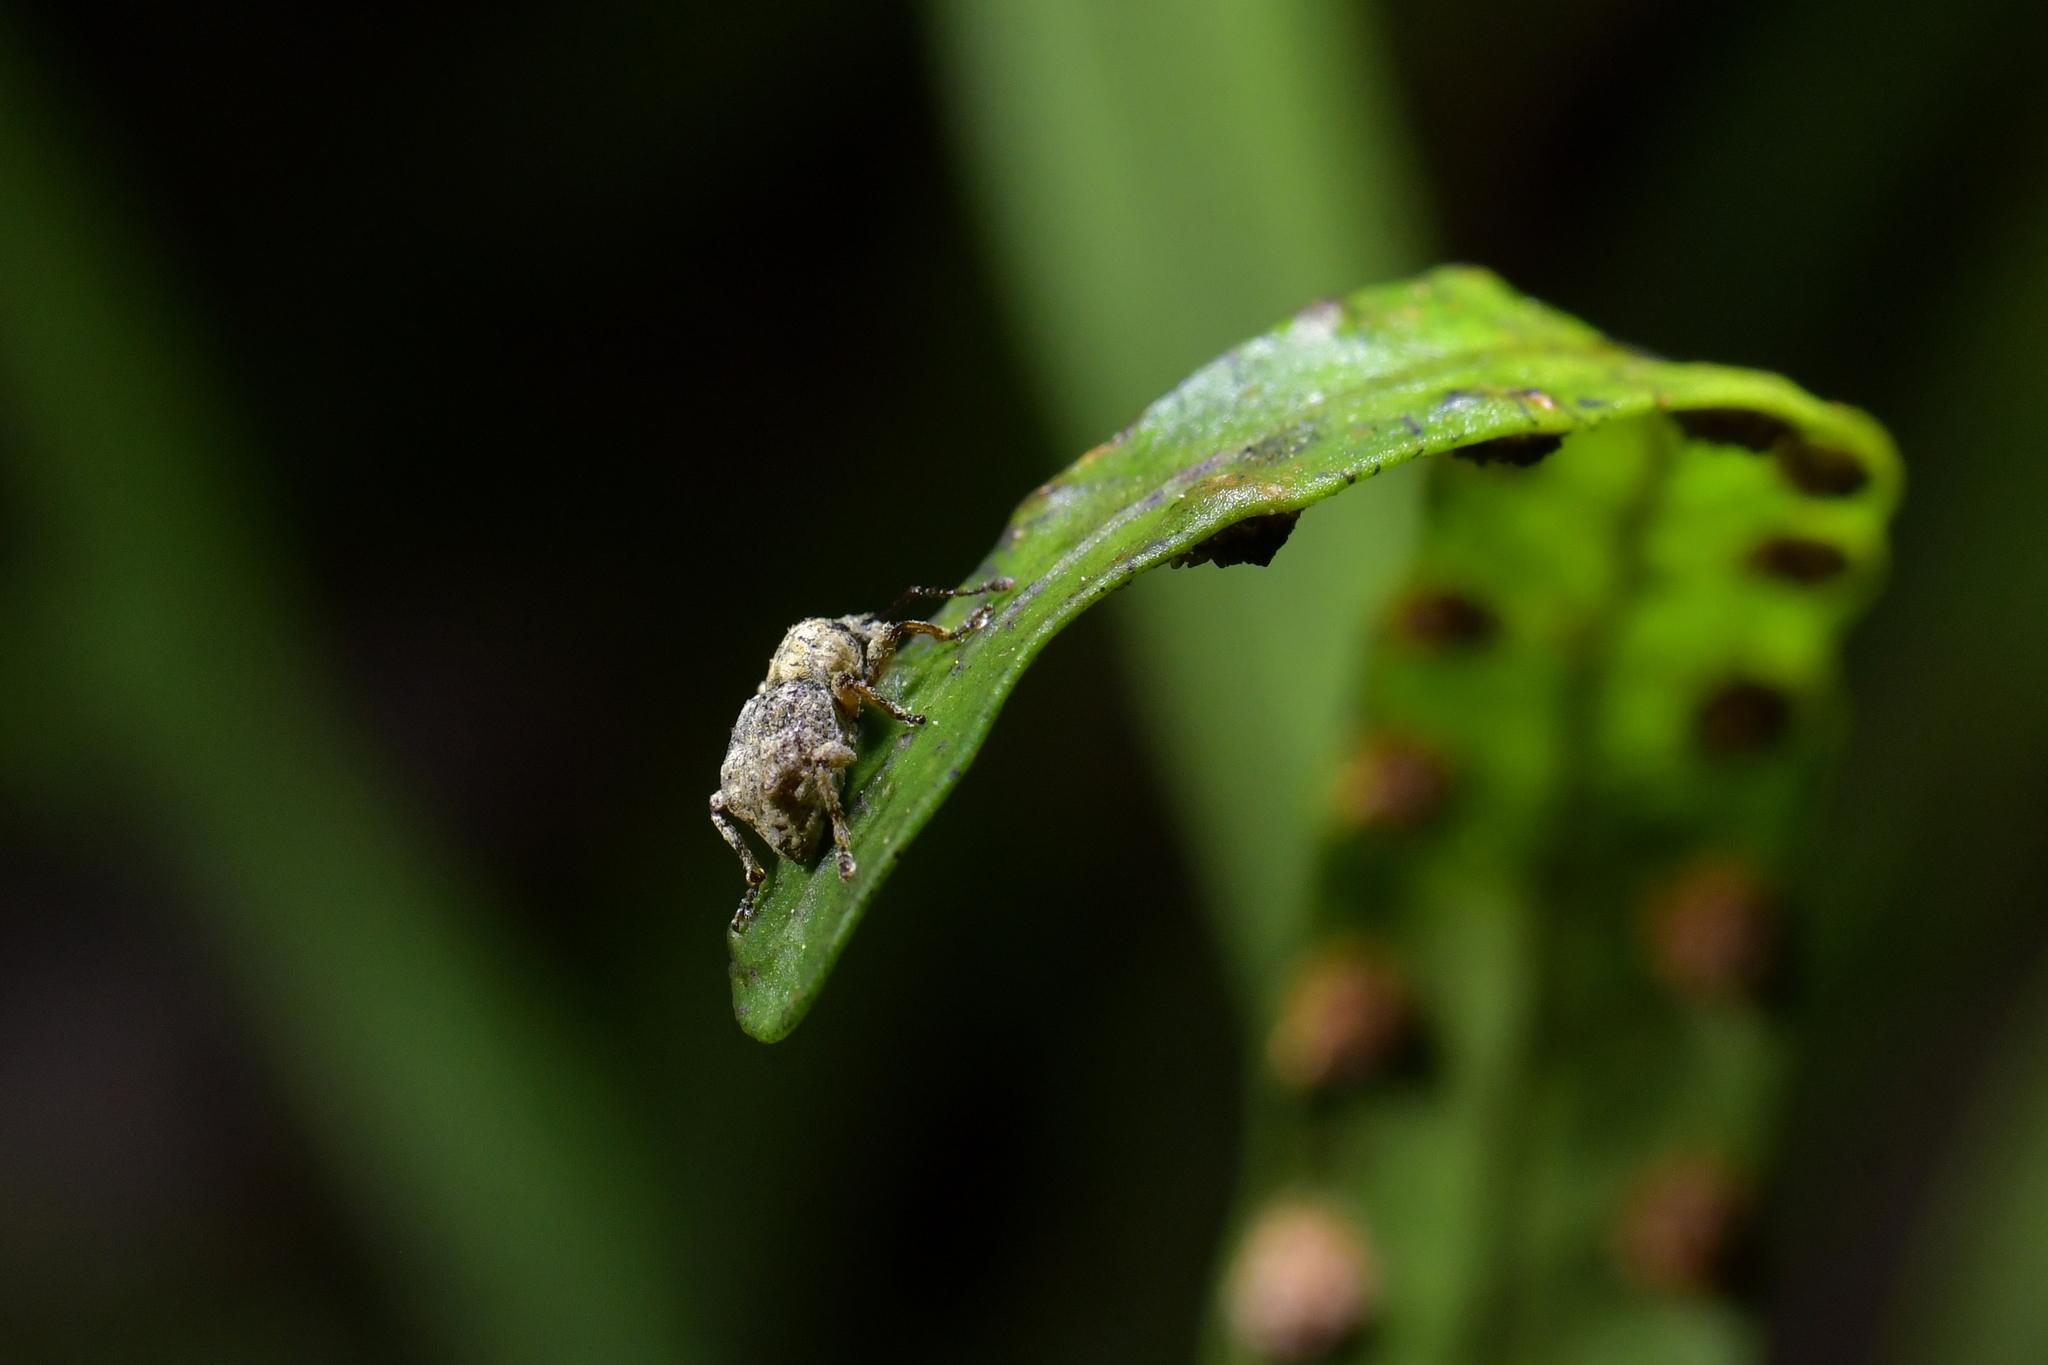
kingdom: Animalia
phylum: Arthropoda
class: Insecta
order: Coleoptera
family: Curculionidae
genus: Brachyolus
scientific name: Brachyolus punctatus
